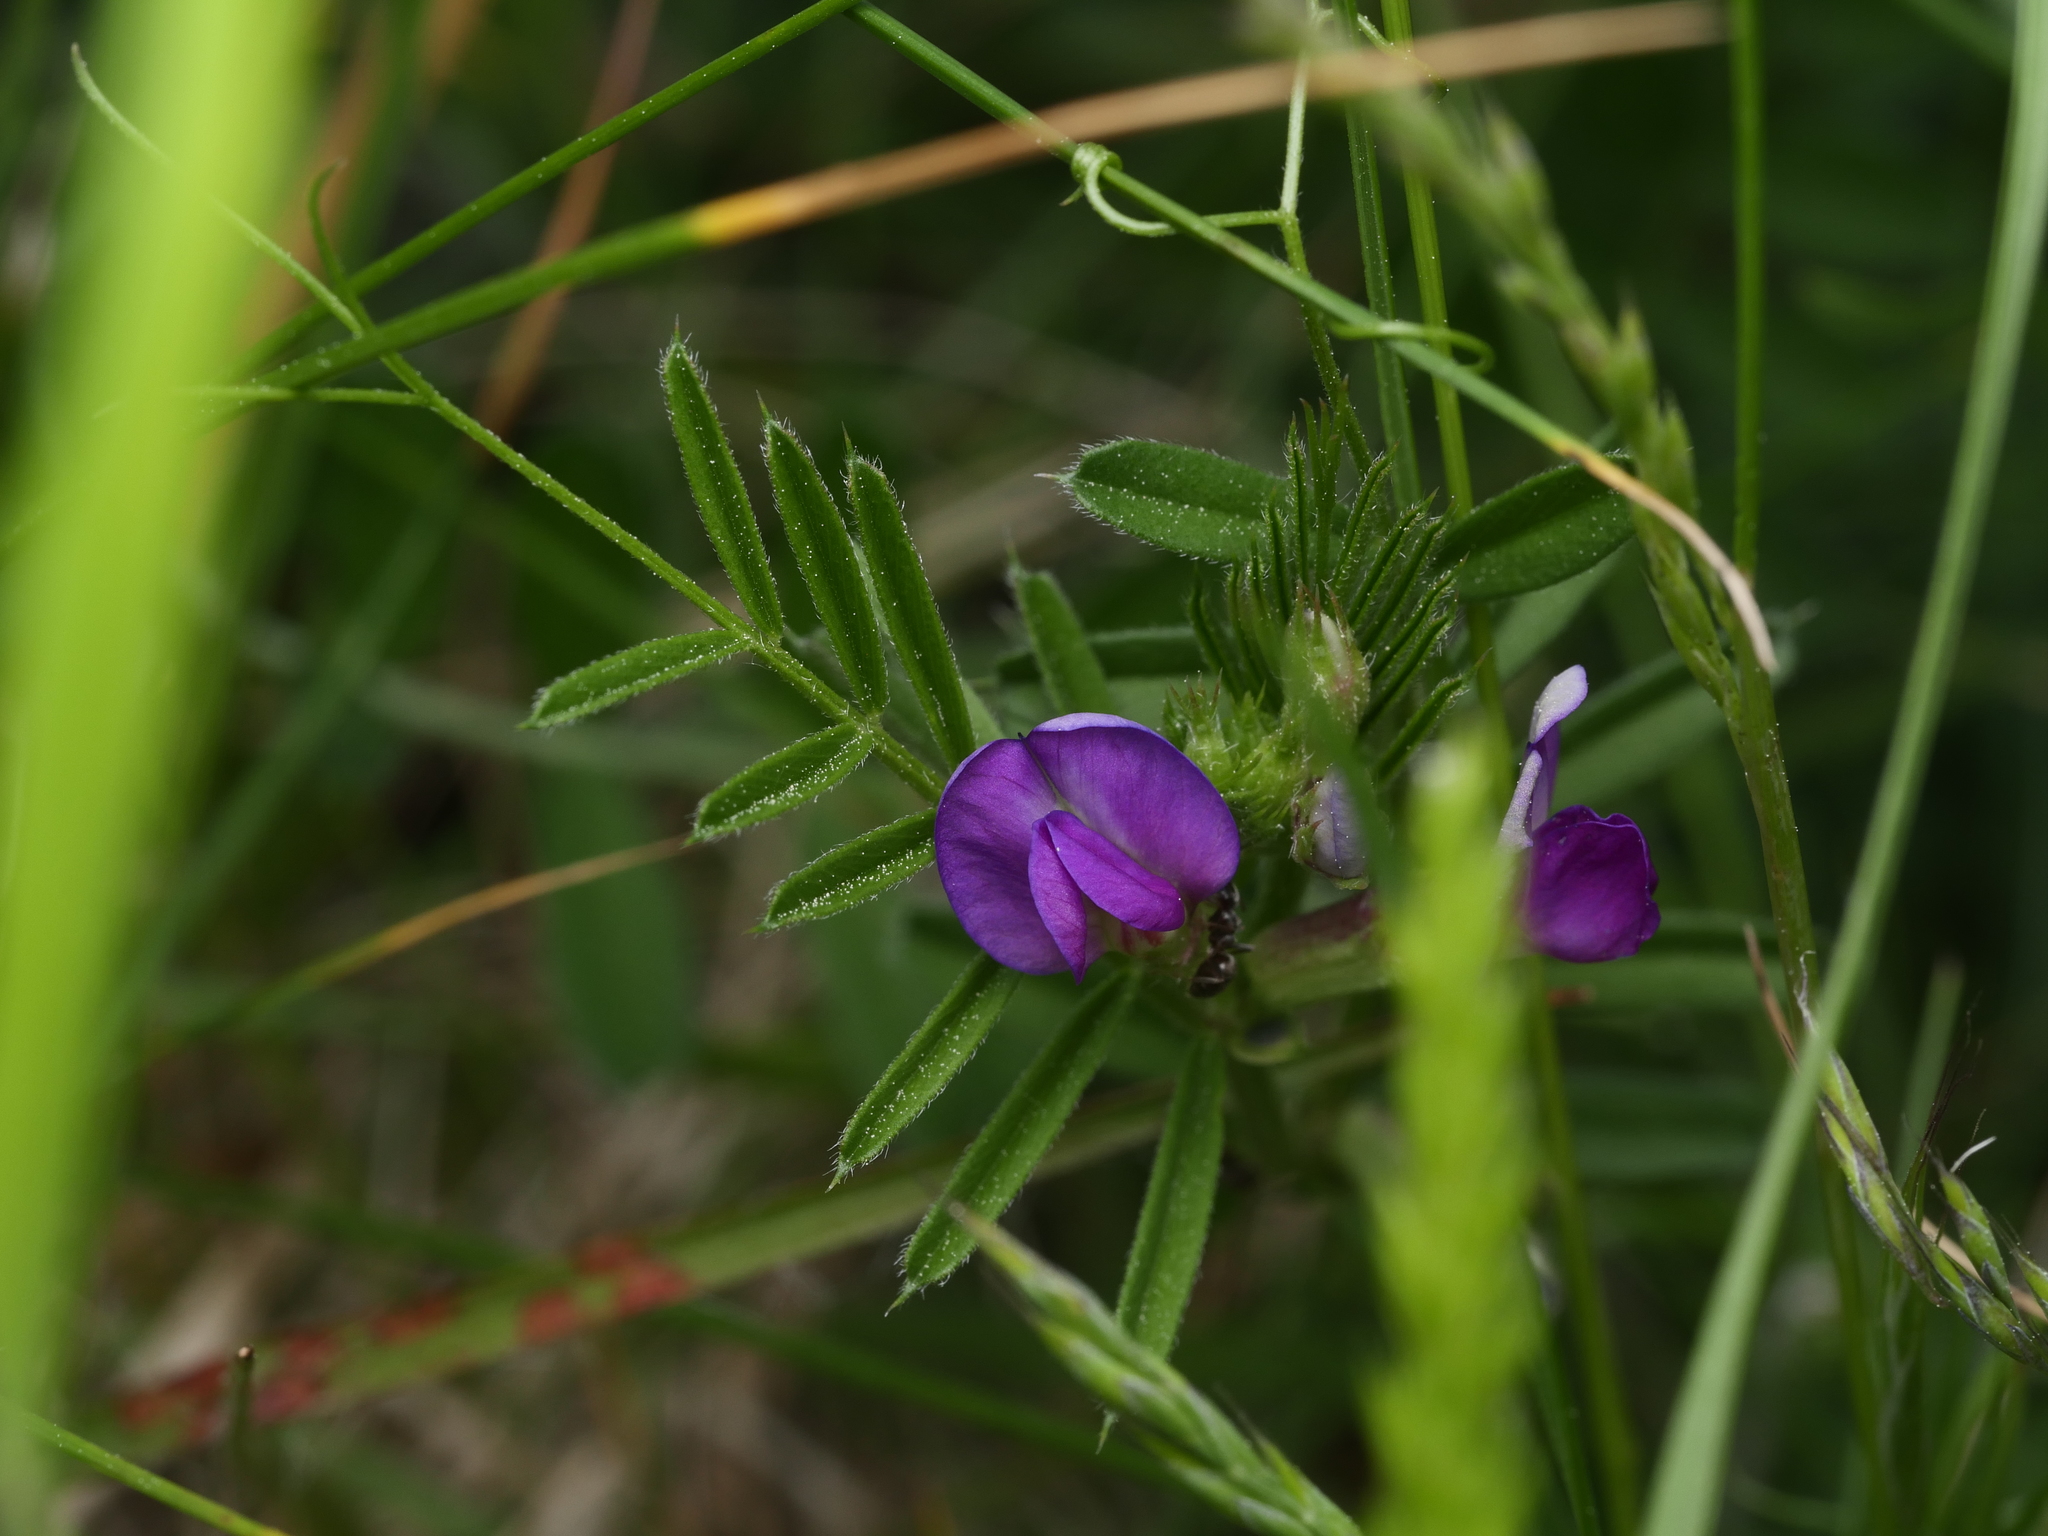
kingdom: Plantae
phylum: Tracheophyta
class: Magnoliopsida
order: Fabales
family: Fabaceae
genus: Vicia
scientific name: Vicia sativa
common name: Garden vetch
